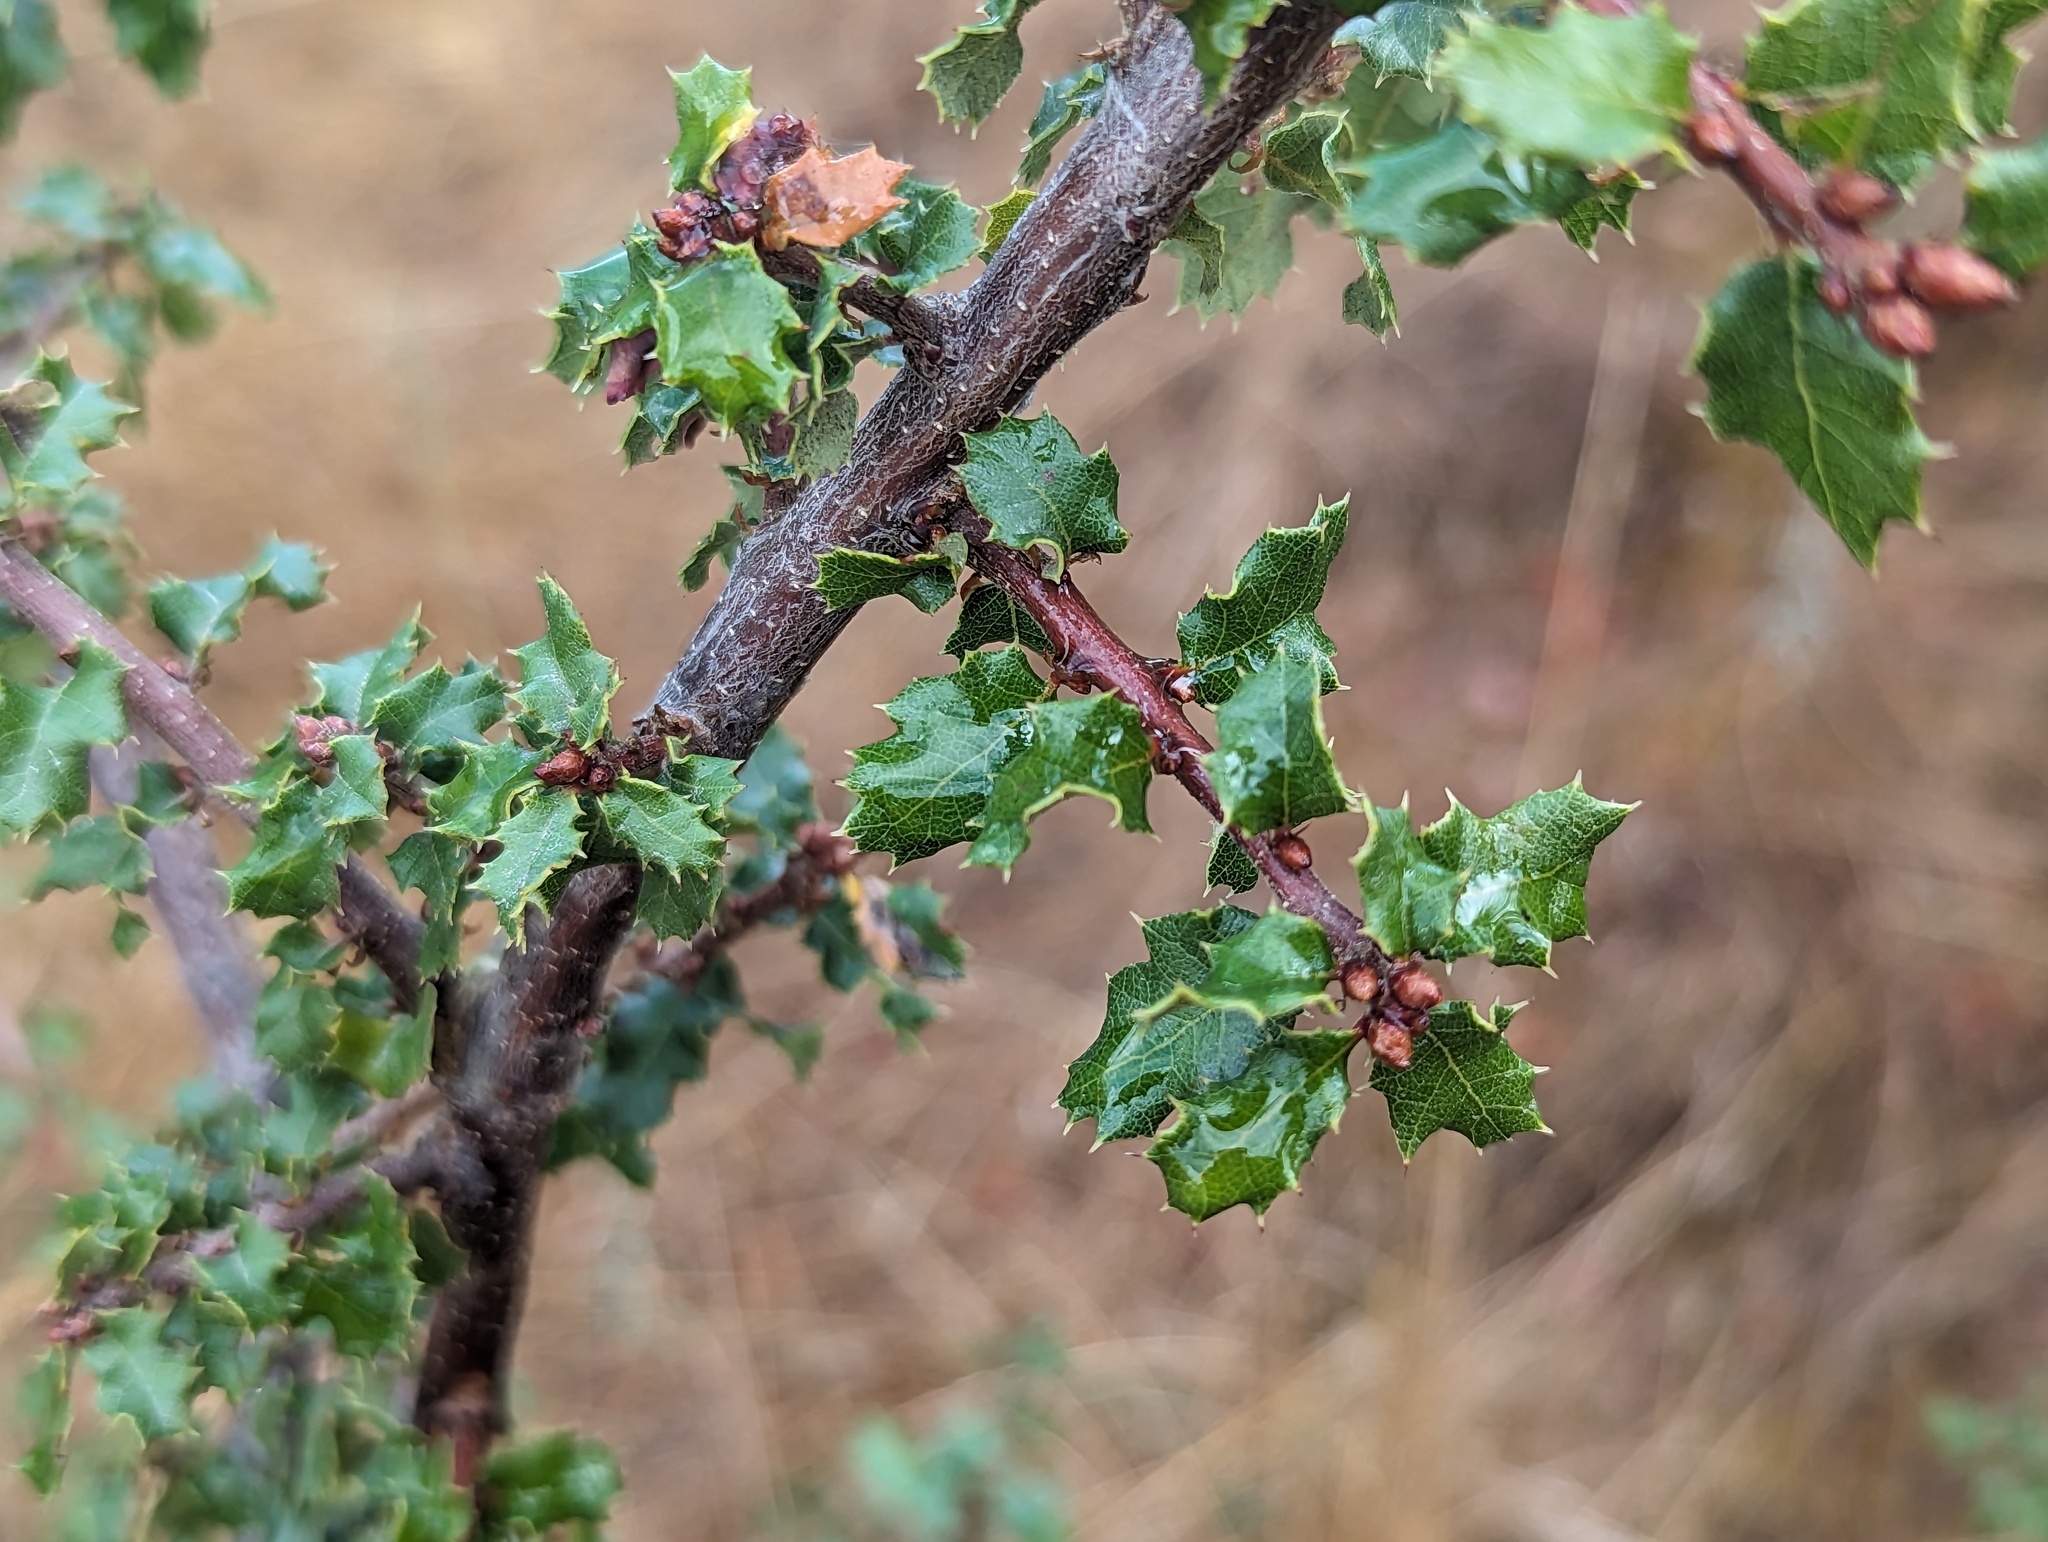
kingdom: Plantae
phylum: Tracheophyta
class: Magnoliopsida
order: Fagales
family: Fagaceae
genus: Quercus
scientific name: Quercus berberidifolia
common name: California scrub oak
